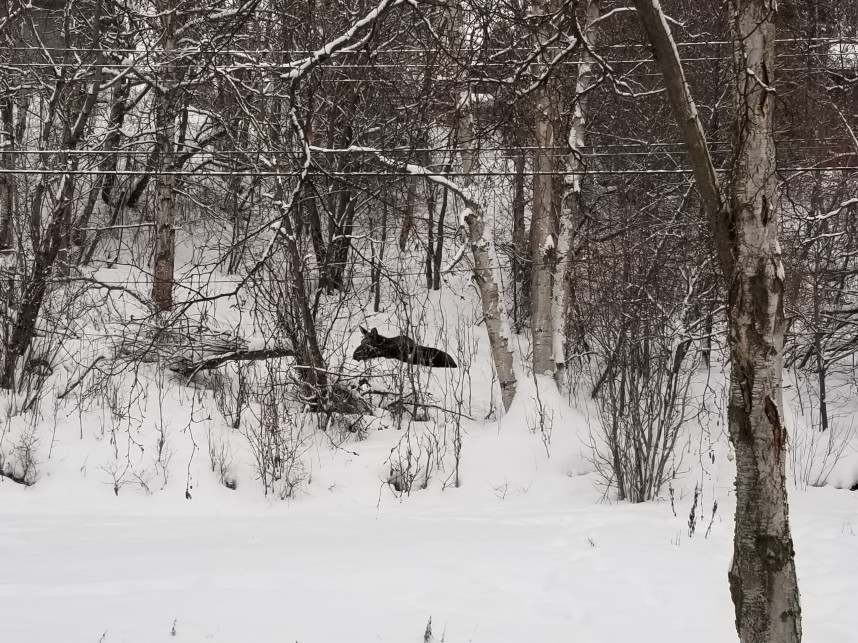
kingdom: Animalia
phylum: Chordata
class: Mammalia
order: Artiodactyla
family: Cervidae
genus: Alces
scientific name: Alces alces
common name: Moose
